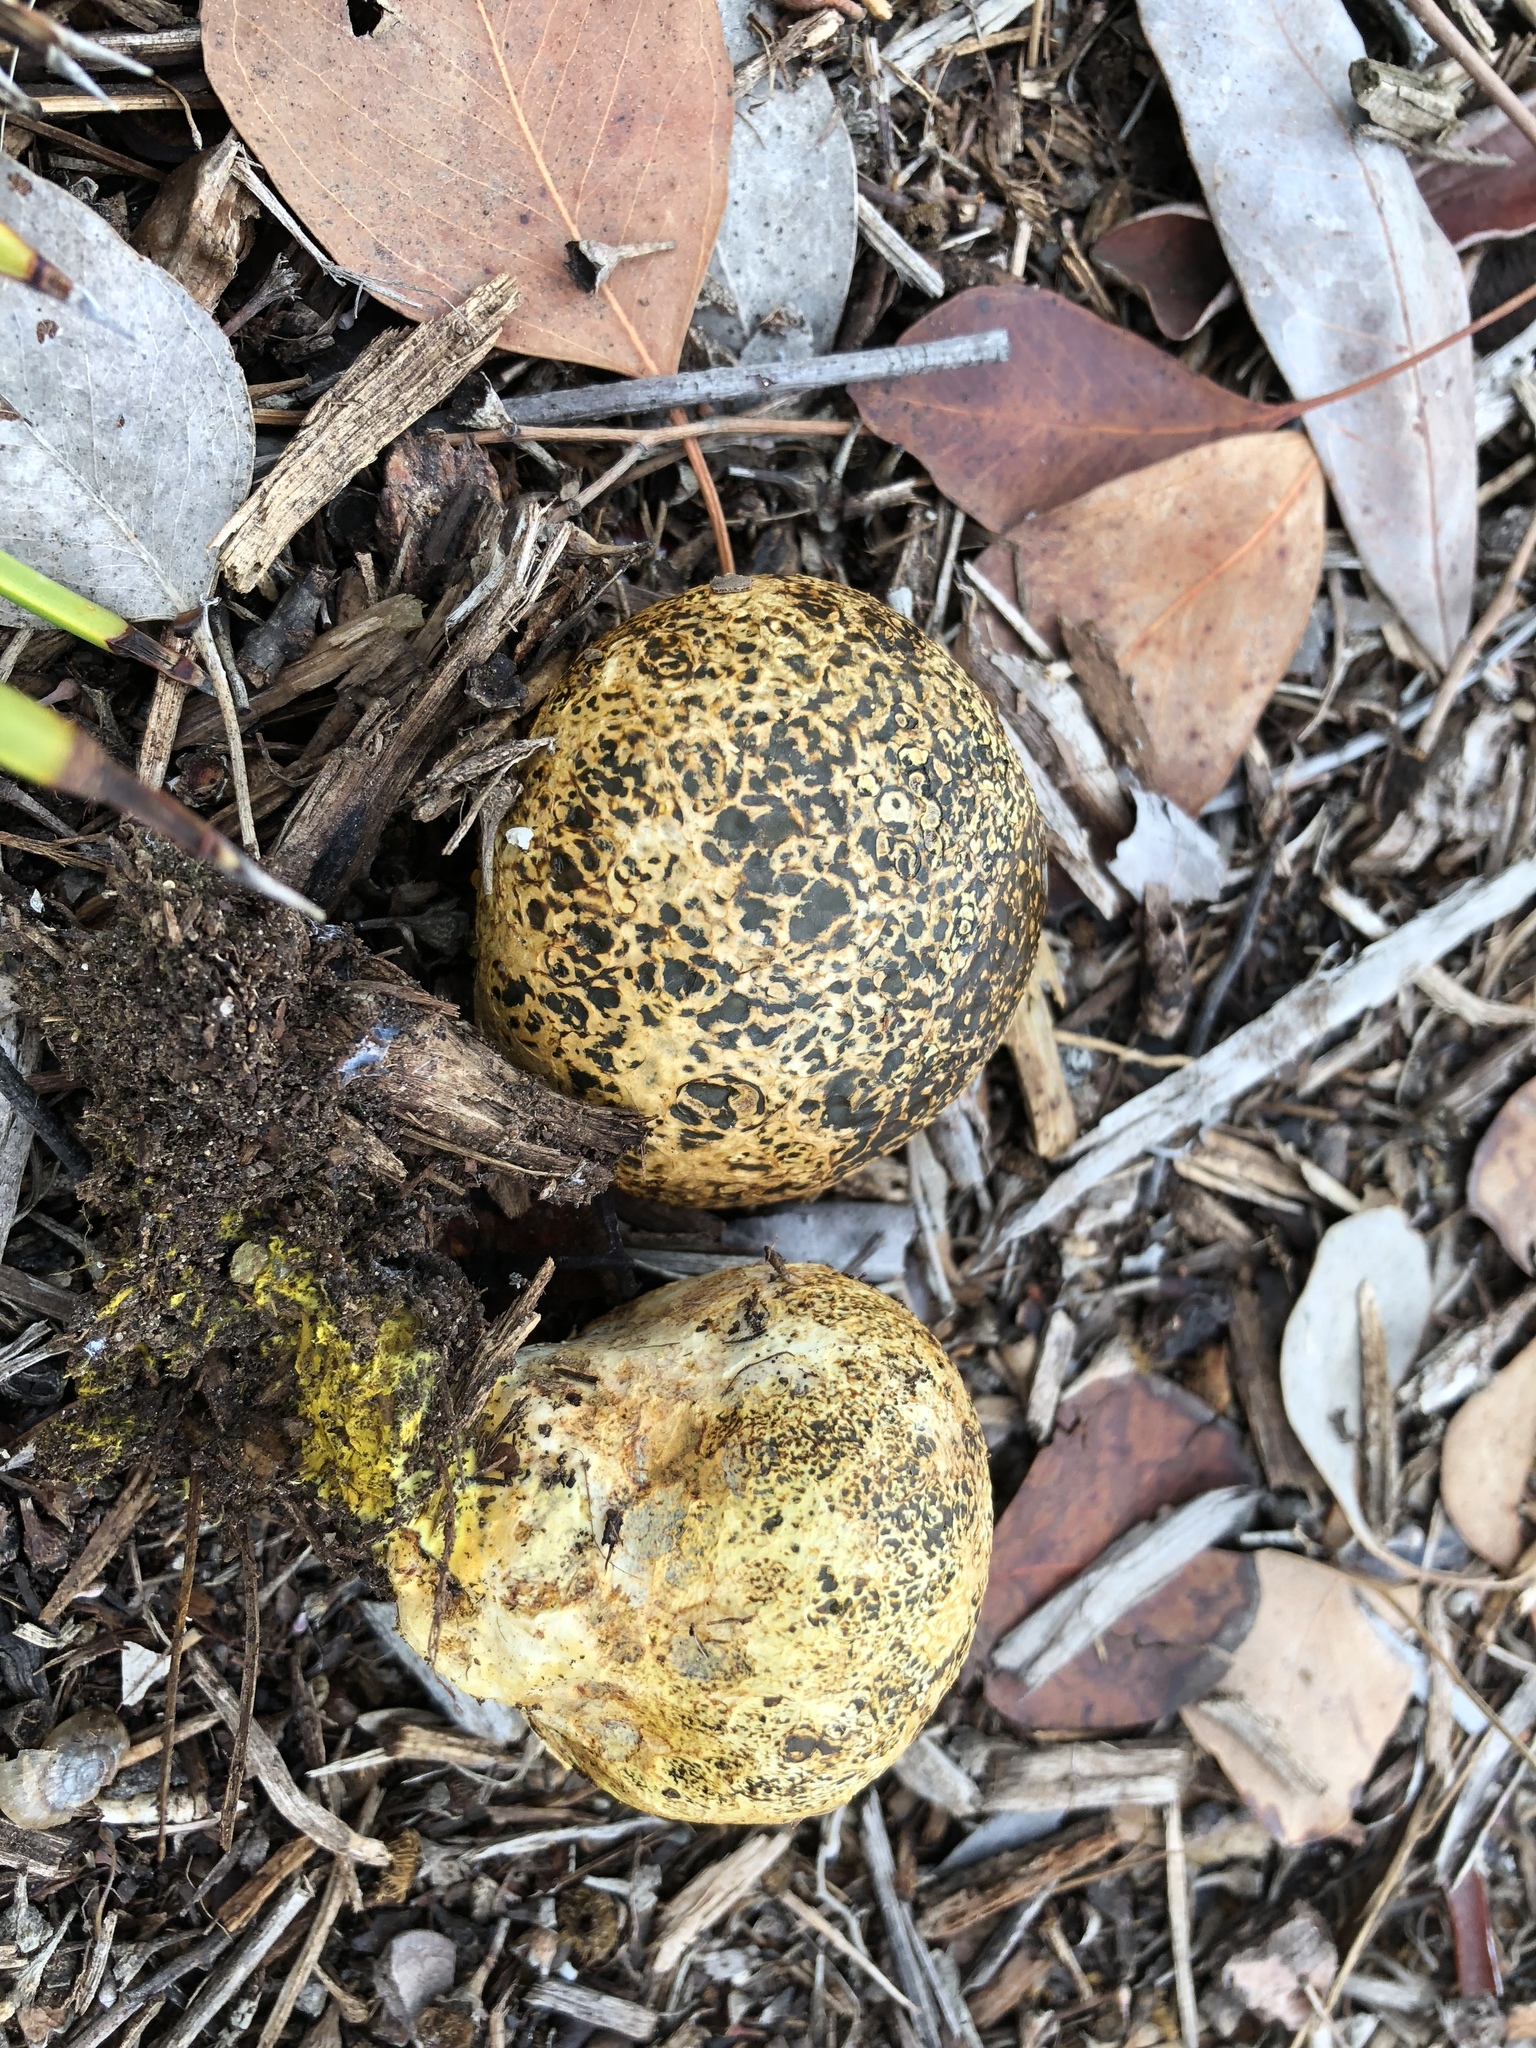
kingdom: Fungi
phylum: Basidiomycota
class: Agaricomycetes
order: Boletales
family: Sclerodermataceae
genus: Pisolithus
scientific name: Pisolithus arhizus
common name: Dyeball
